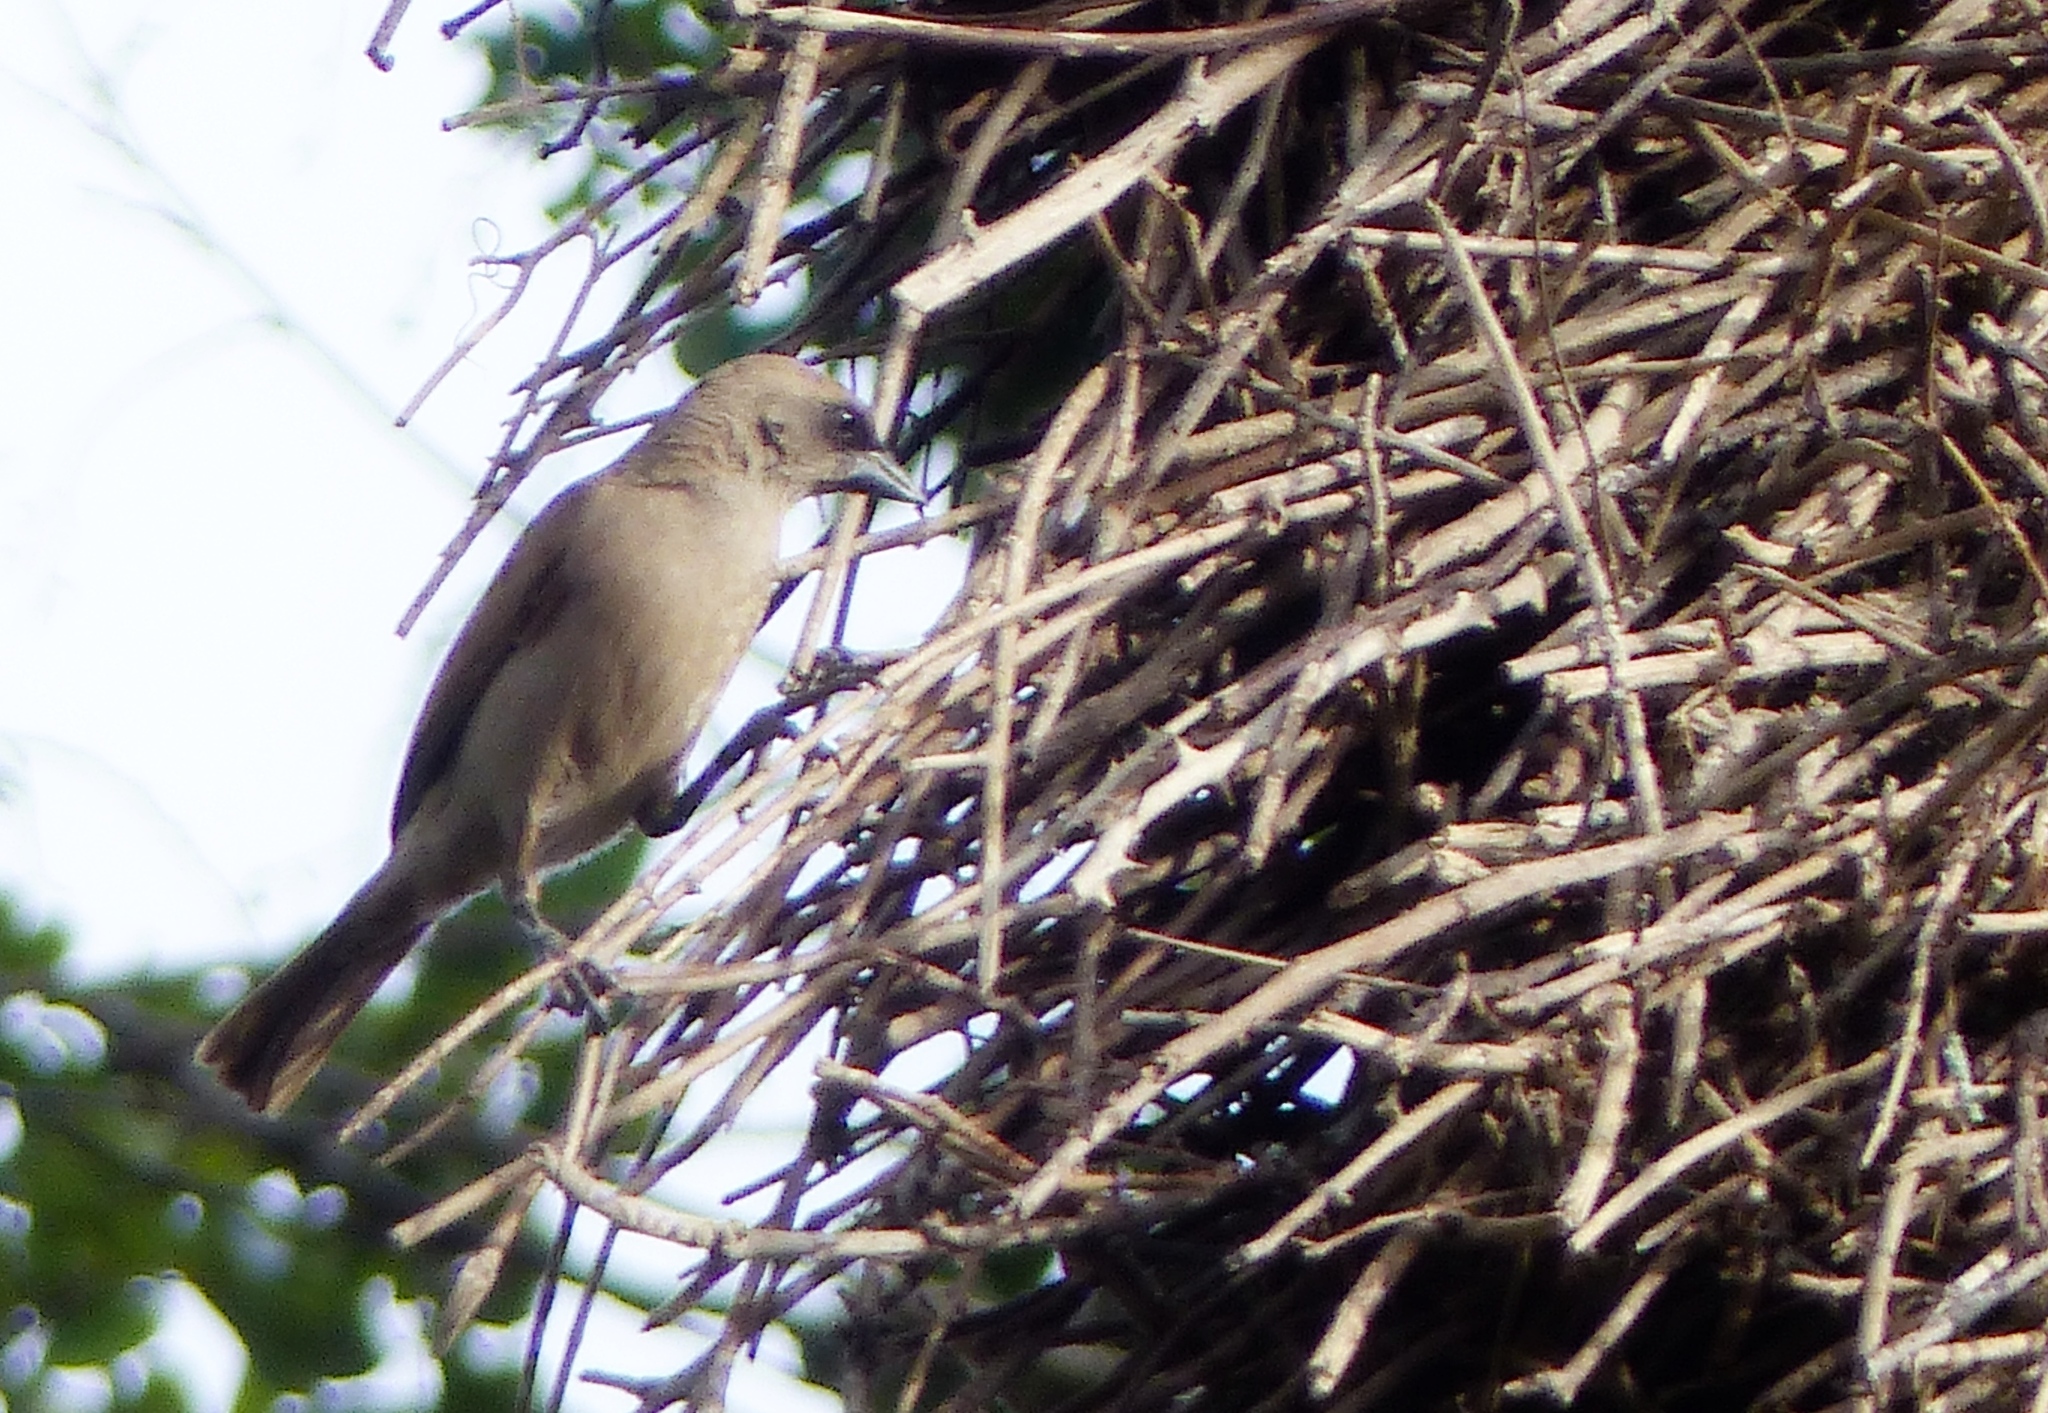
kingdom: Animalia
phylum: Chordata
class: Aves
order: Passeriformes
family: Icteridae
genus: Agelaioides
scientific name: Agelaioides badius
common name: Baywing
